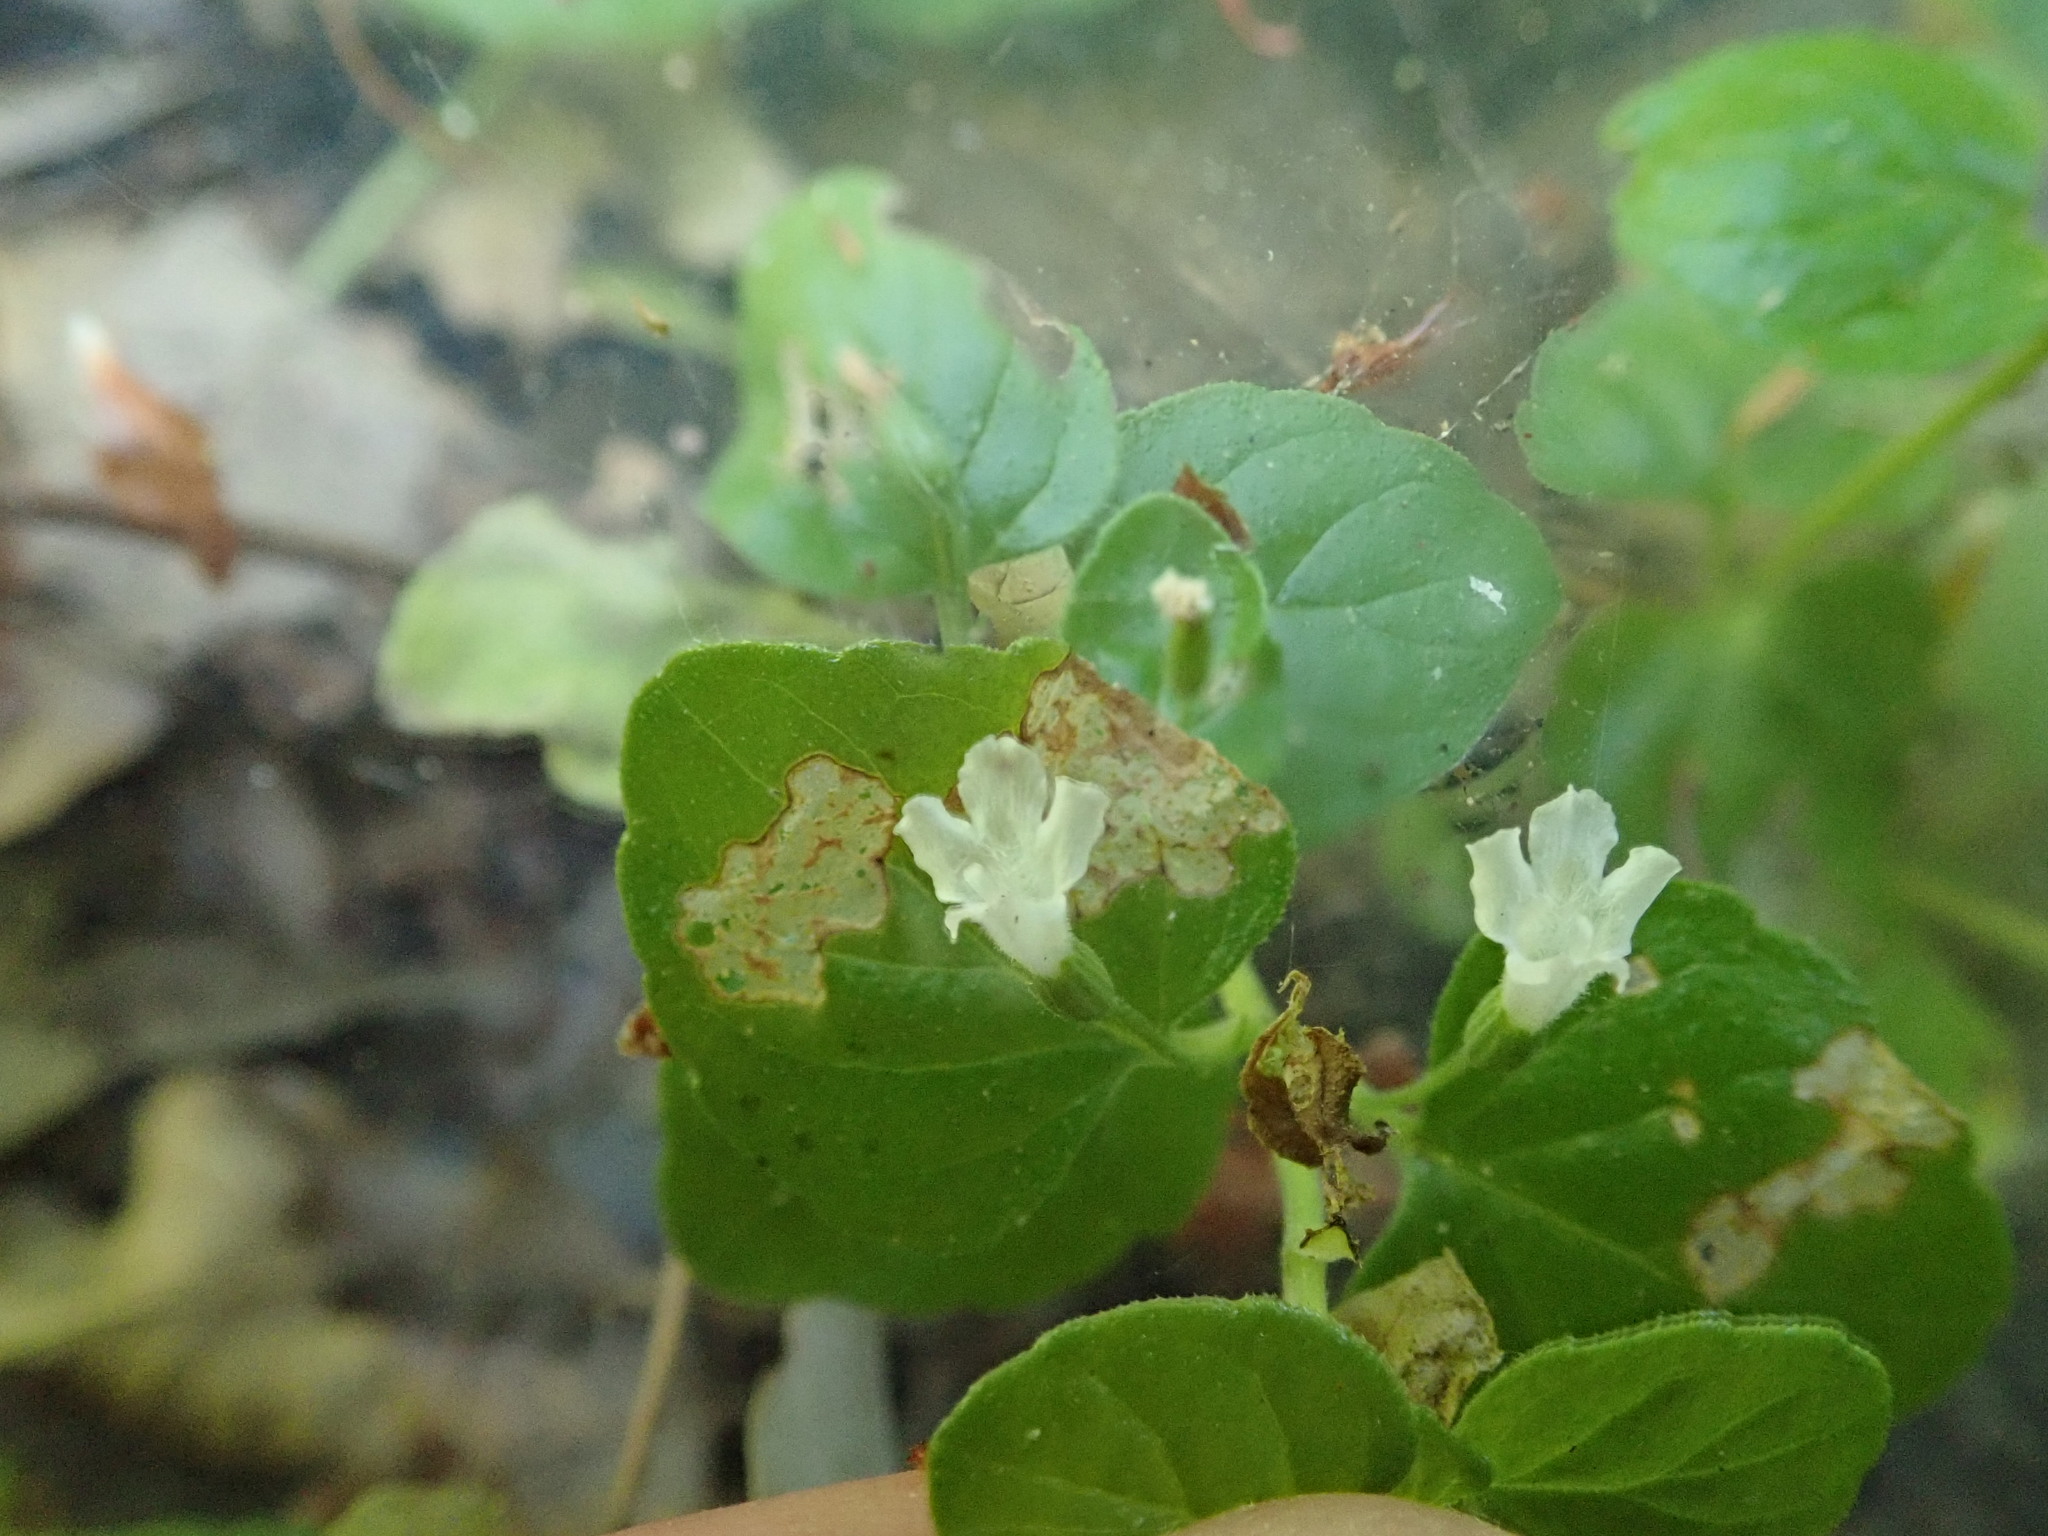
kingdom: Plantae
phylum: Tracheophyta
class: Magnoliopsida
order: Lamiales
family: Lamiaceae
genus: Micromeria
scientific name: Micromeria douglasii
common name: Yerba buena
